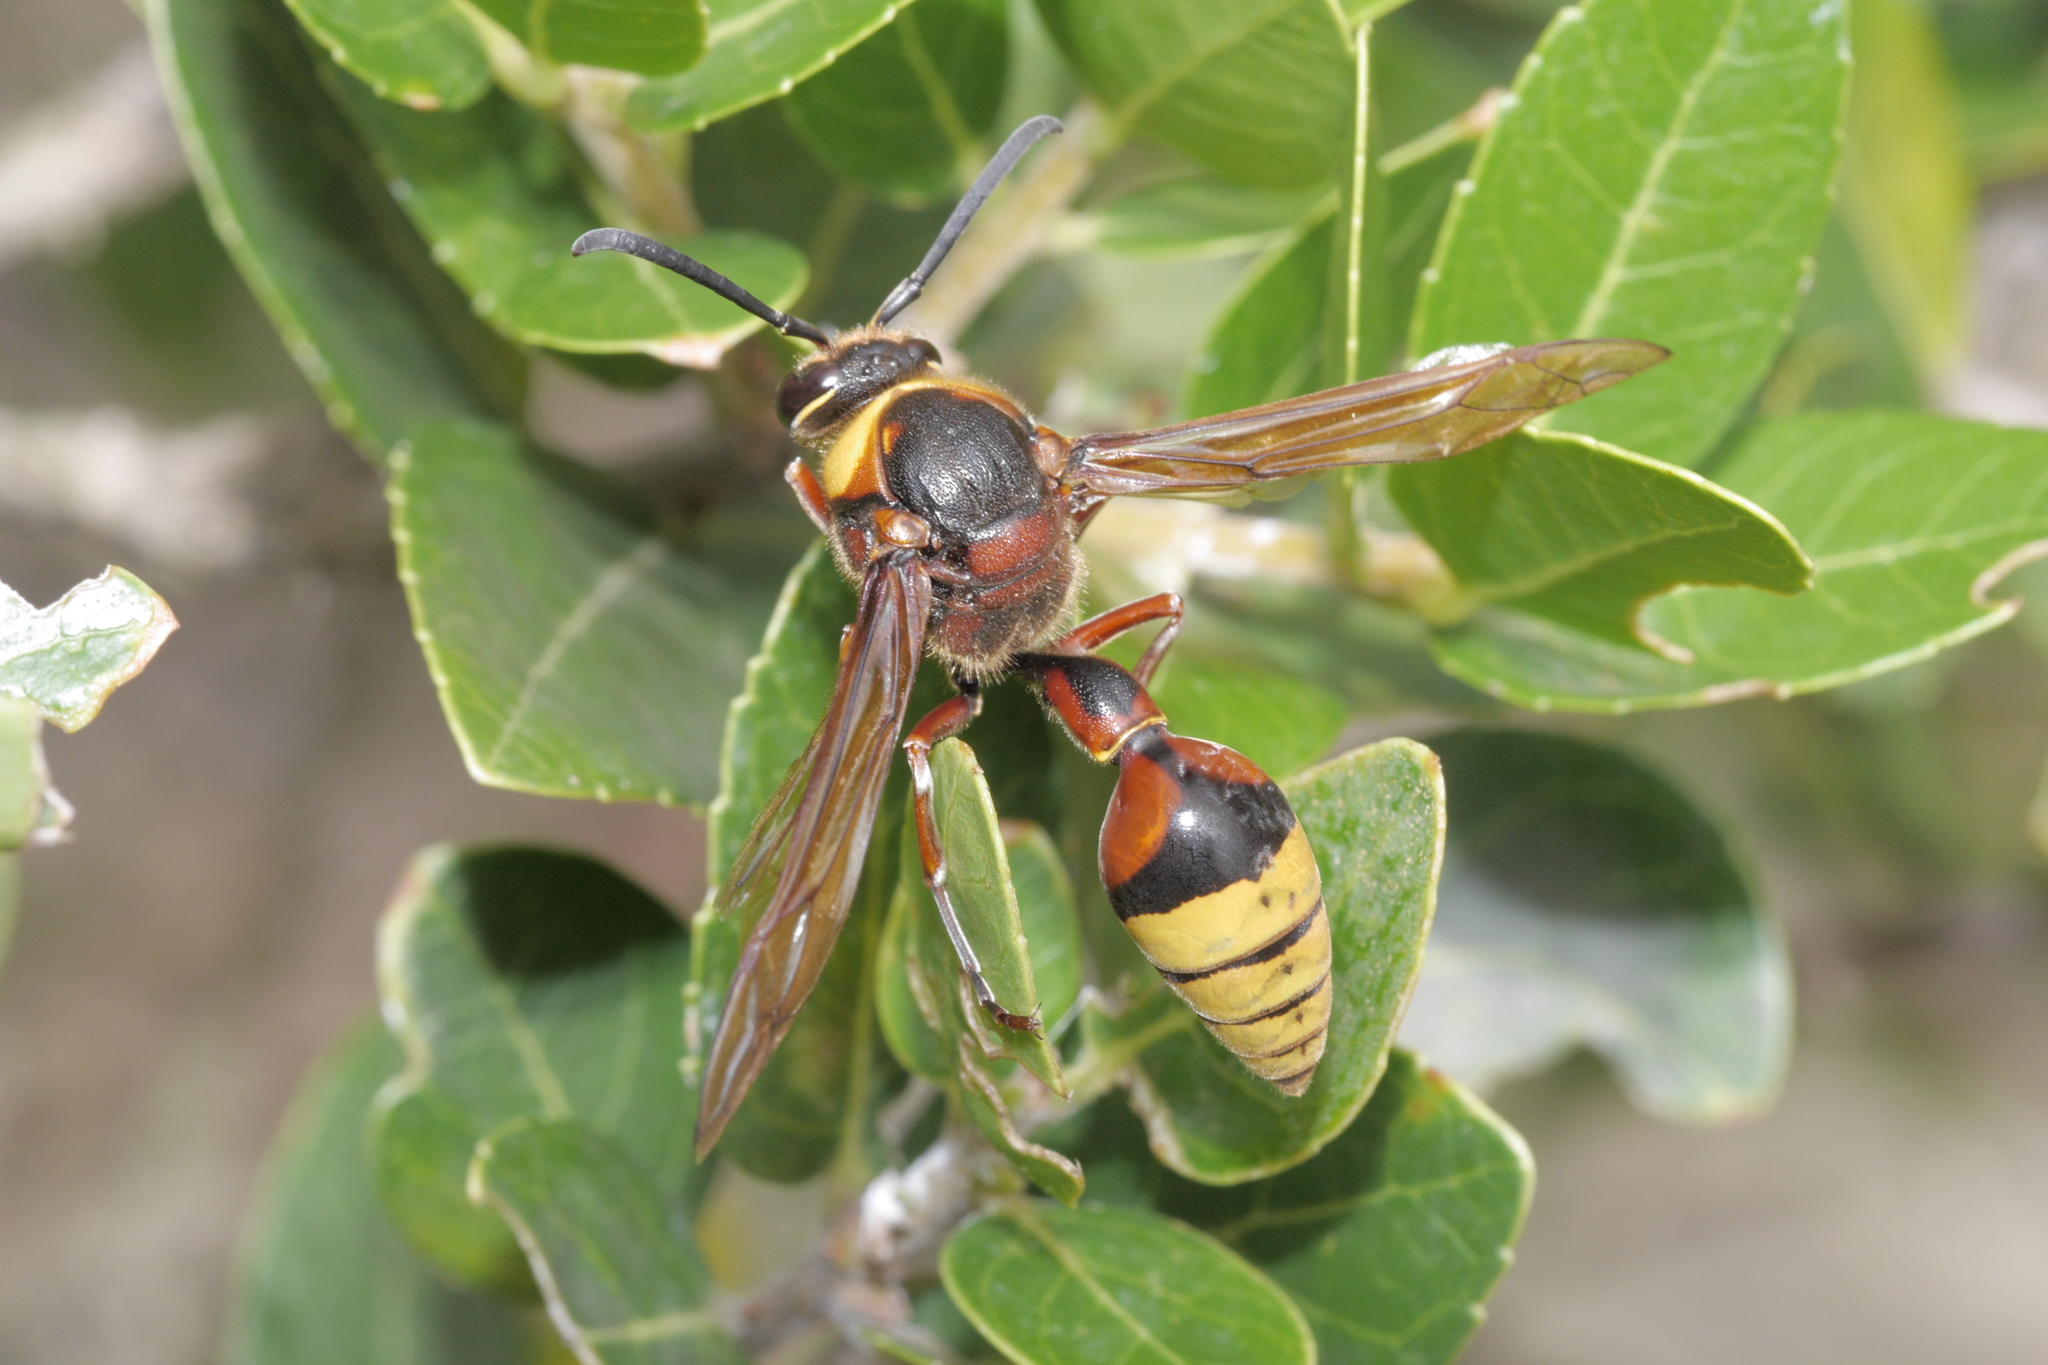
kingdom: Animalia
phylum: Arthropoda
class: Insecta
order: Hymenoptera
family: Eumenidae
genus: Delta
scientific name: Delta unguiculatum
